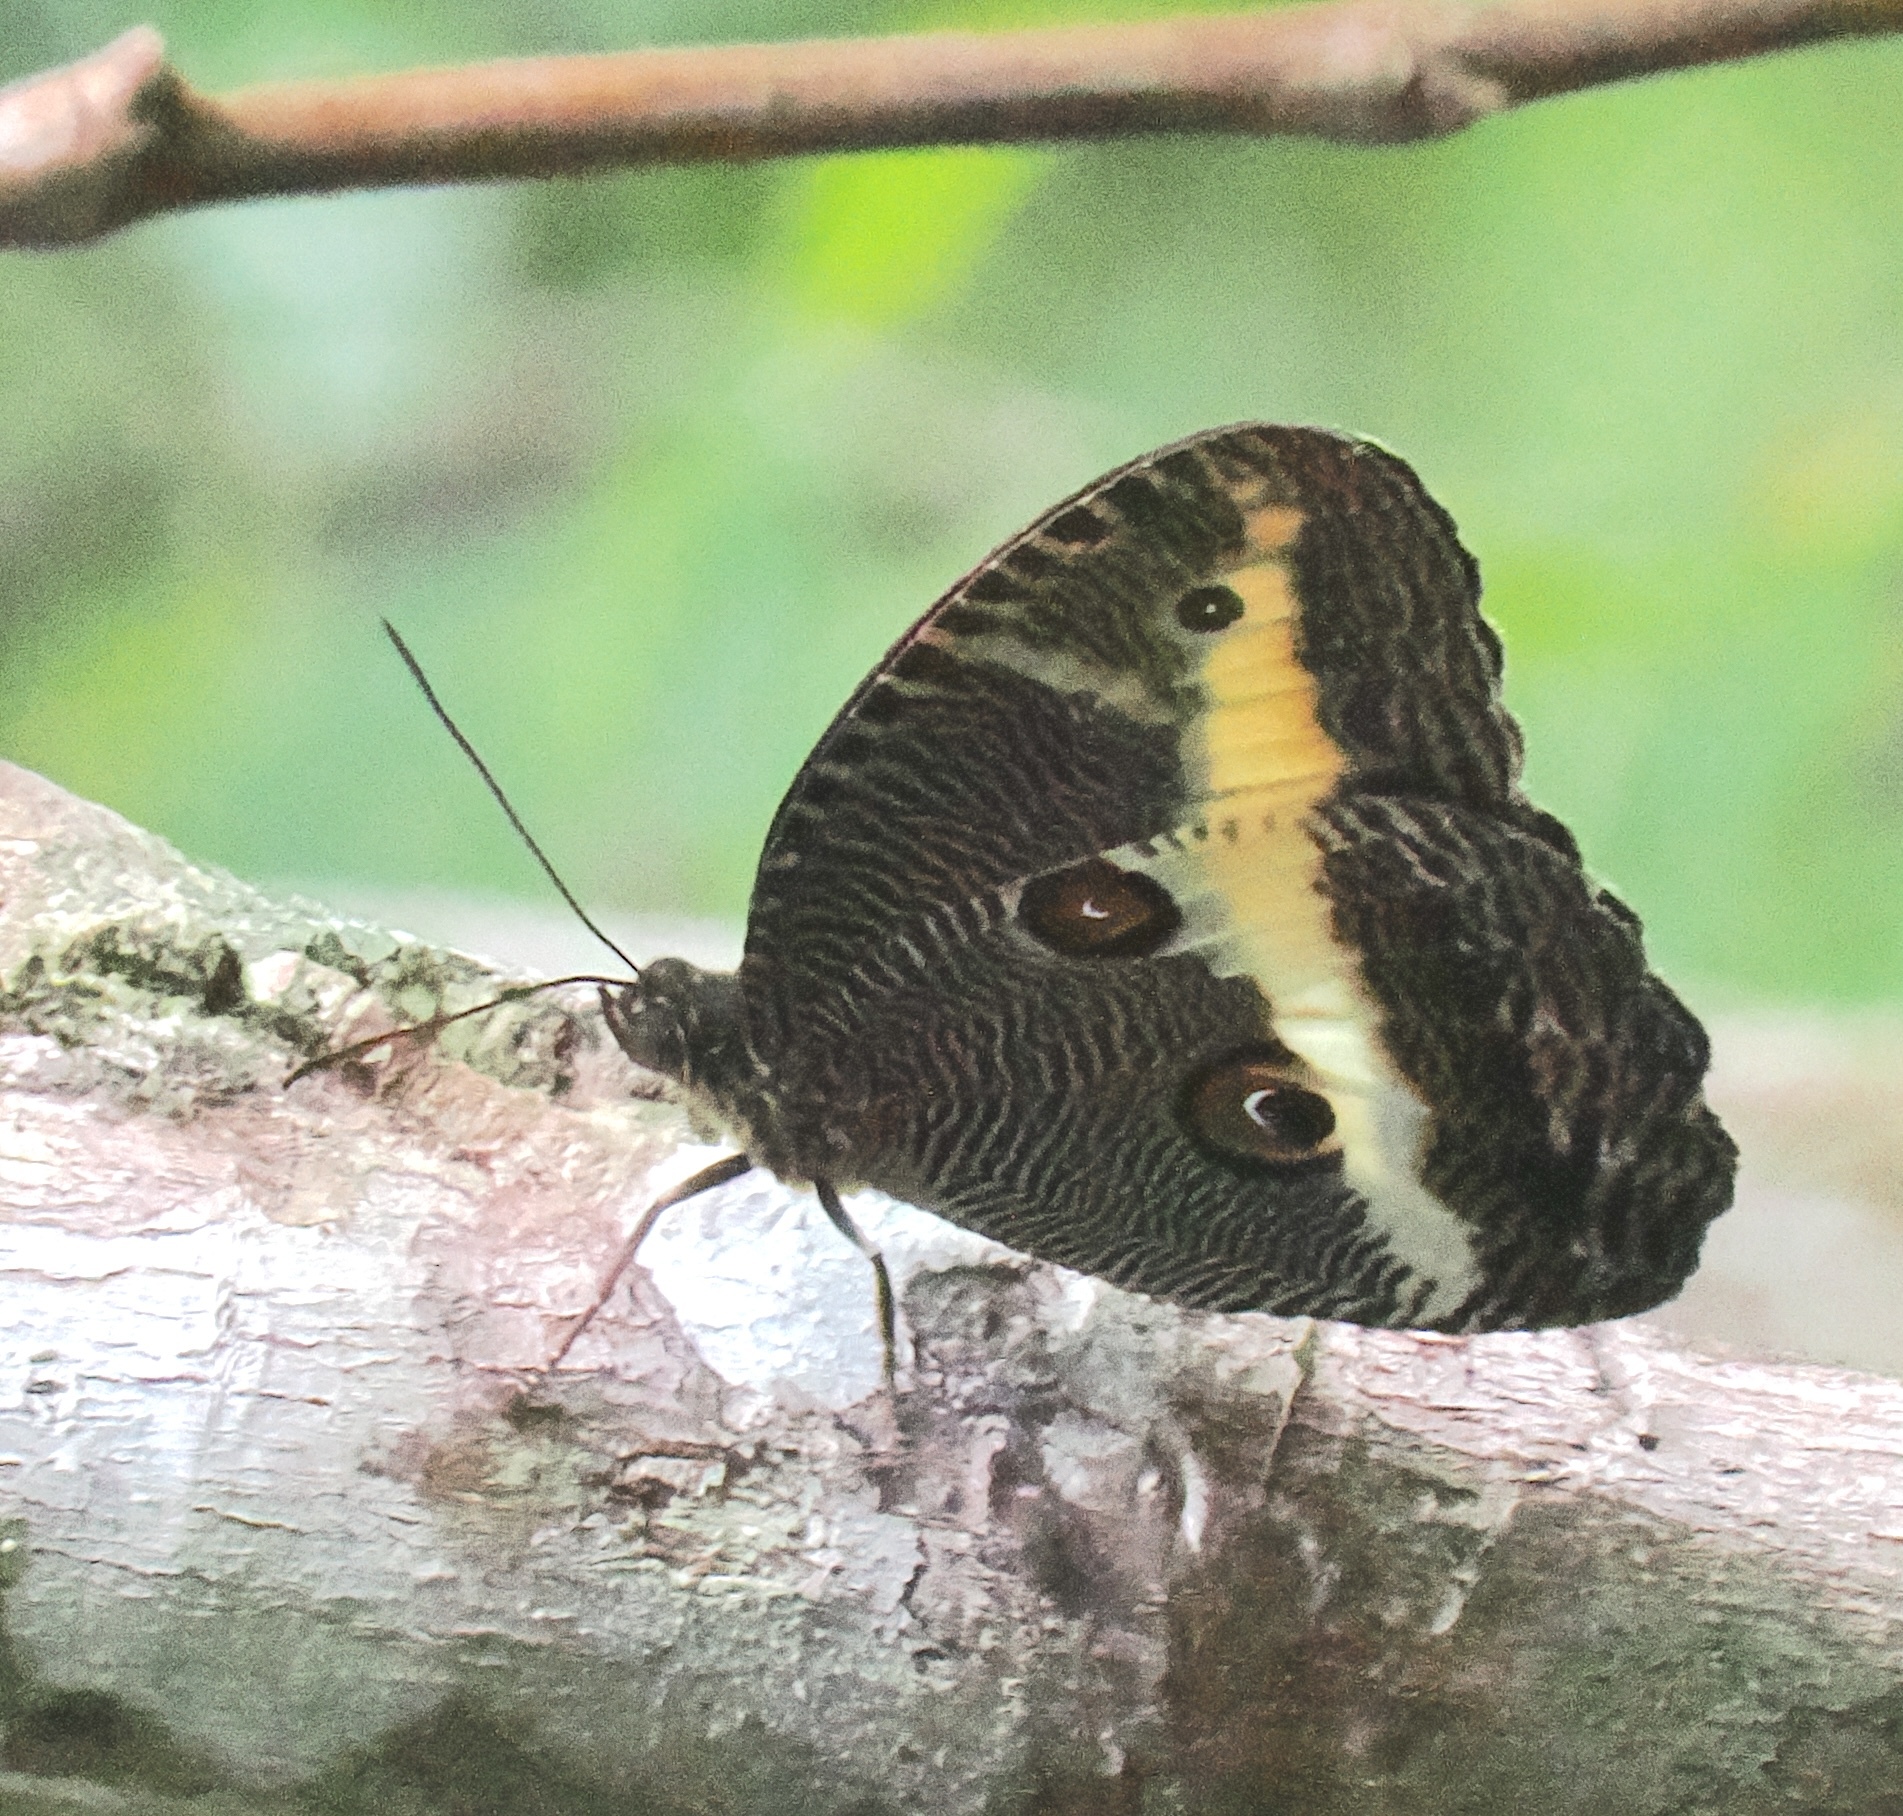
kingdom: Animalia
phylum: Arthropoda
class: Insecta
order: Lepidoptera
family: Nymphalidae
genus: Dasyophthalma
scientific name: Dasyophthalma rusina
